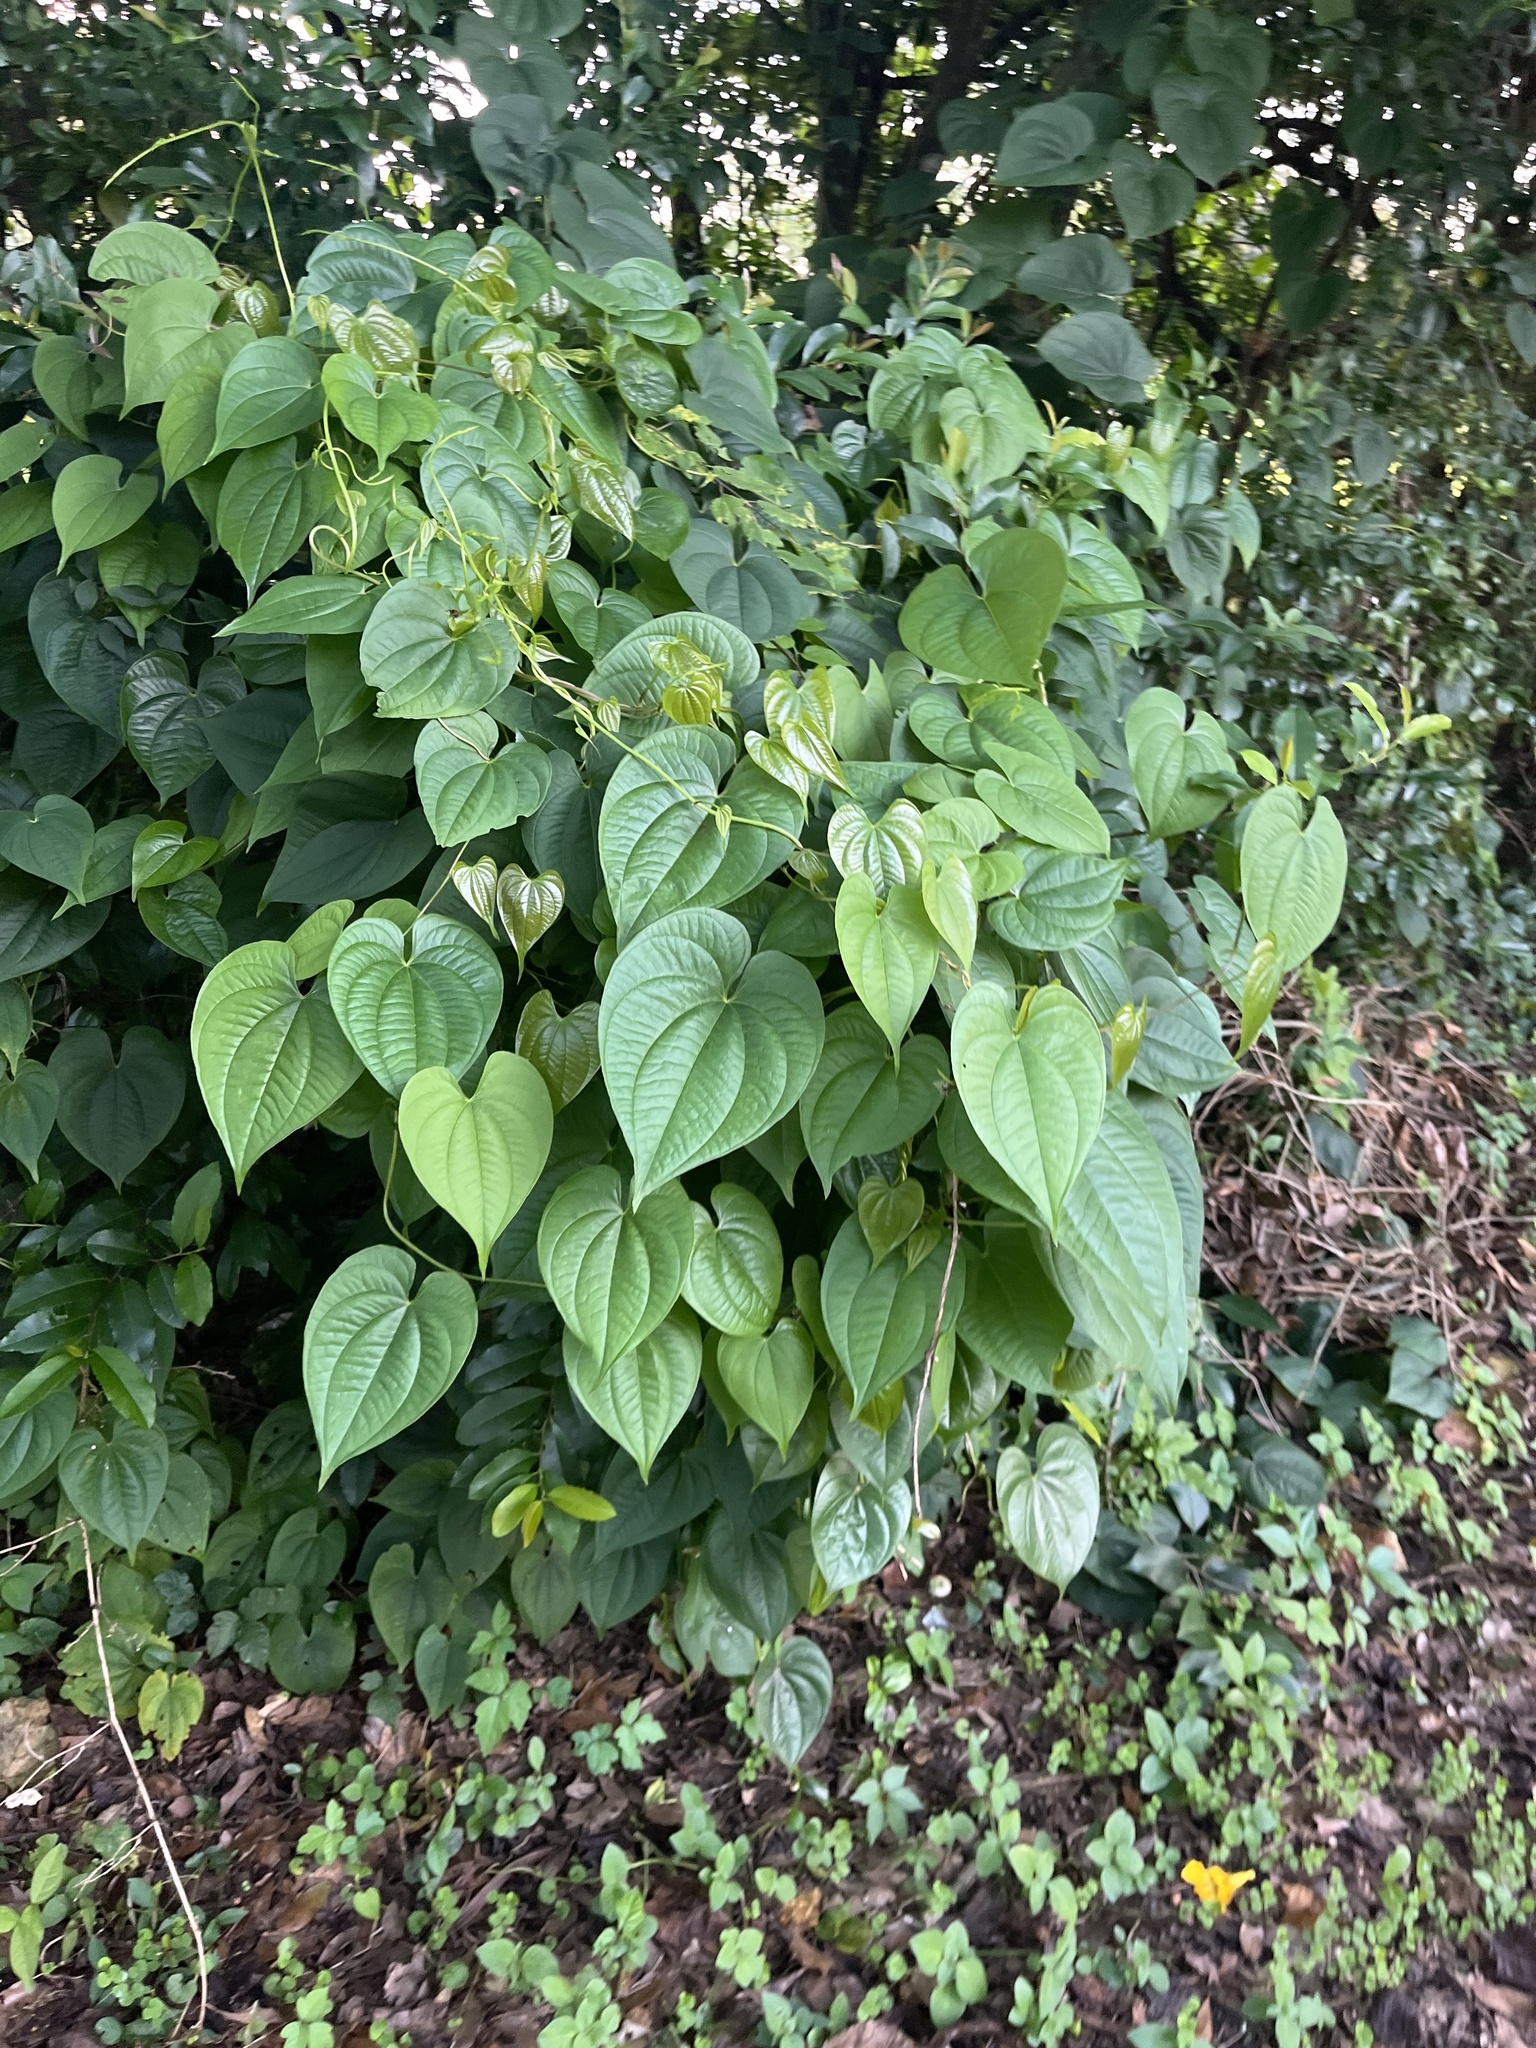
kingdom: Plantae
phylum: Tracheophyta
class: Liliopsida
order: Dioscoreales
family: Dioscoreaceae
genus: Dioscorea
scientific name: Dioscorea bulbifera
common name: Air yam
